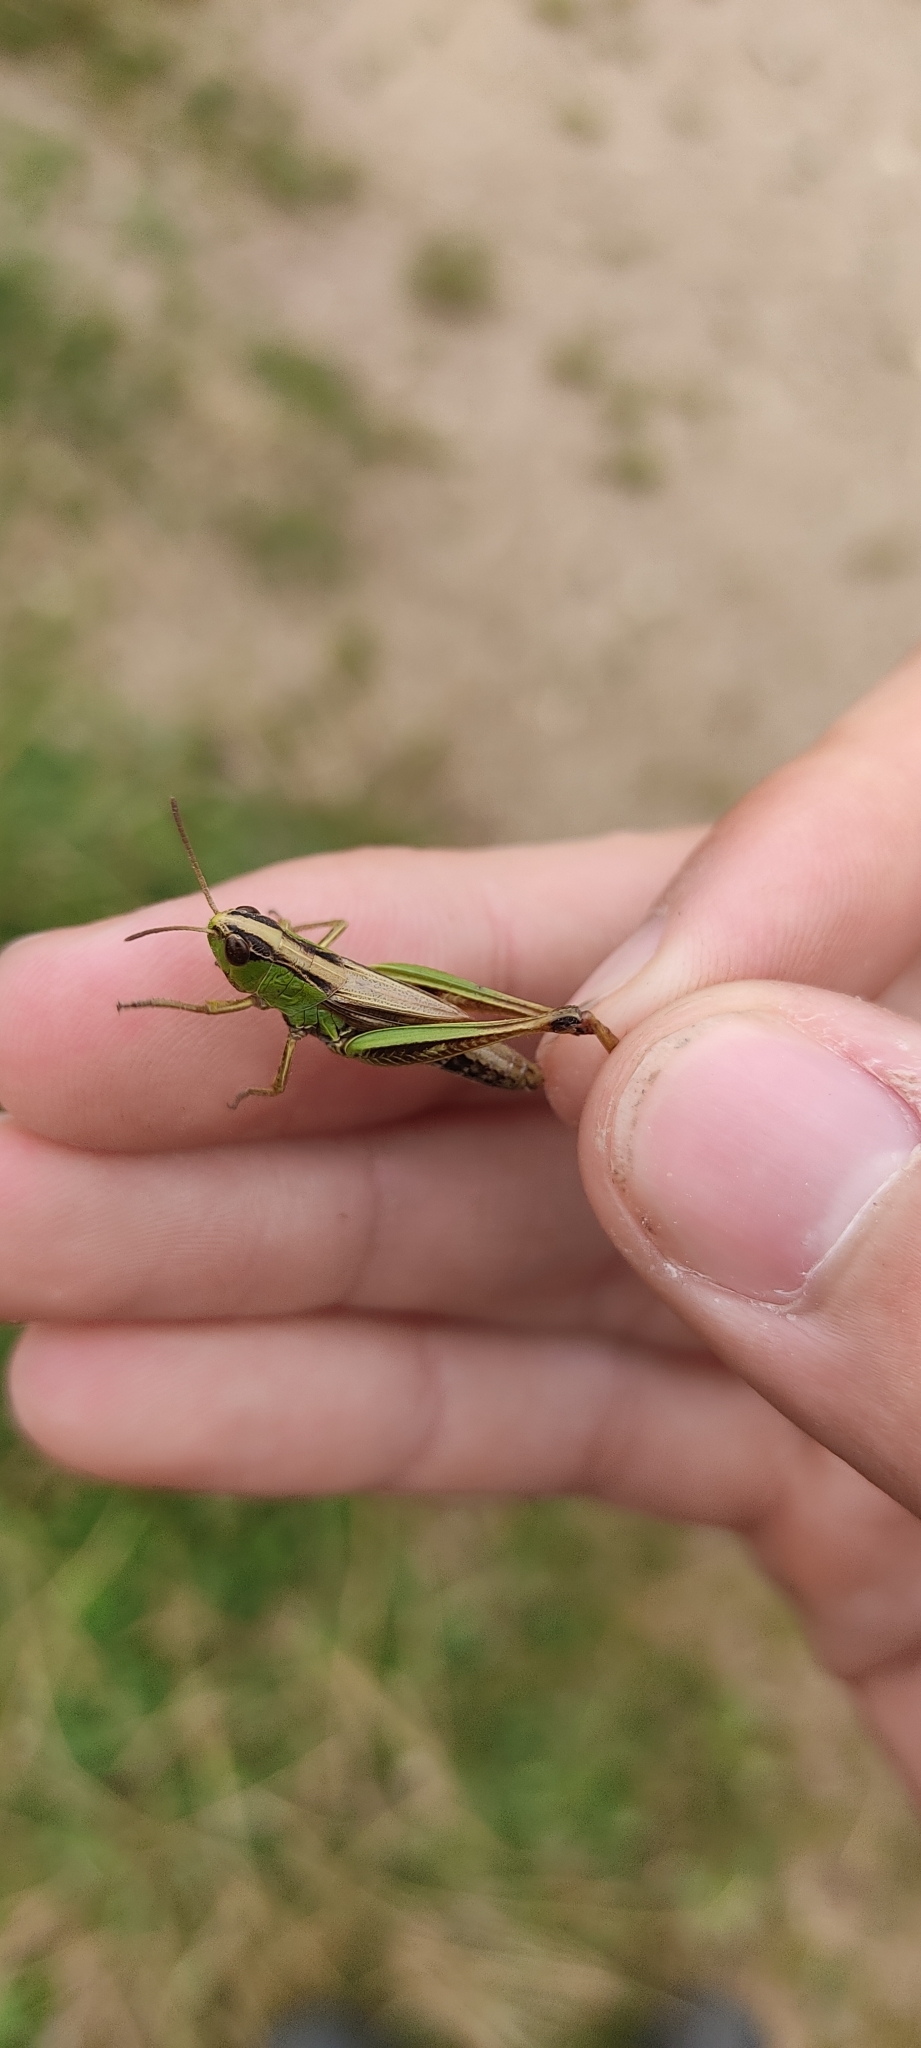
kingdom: Animalia
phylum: Arthropoda
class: Insecta
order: Orthoptera
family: Acrididae
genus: Pseudochorthippus
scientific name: Pseudochorthippus parallelus
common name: Meadow grasshopper
